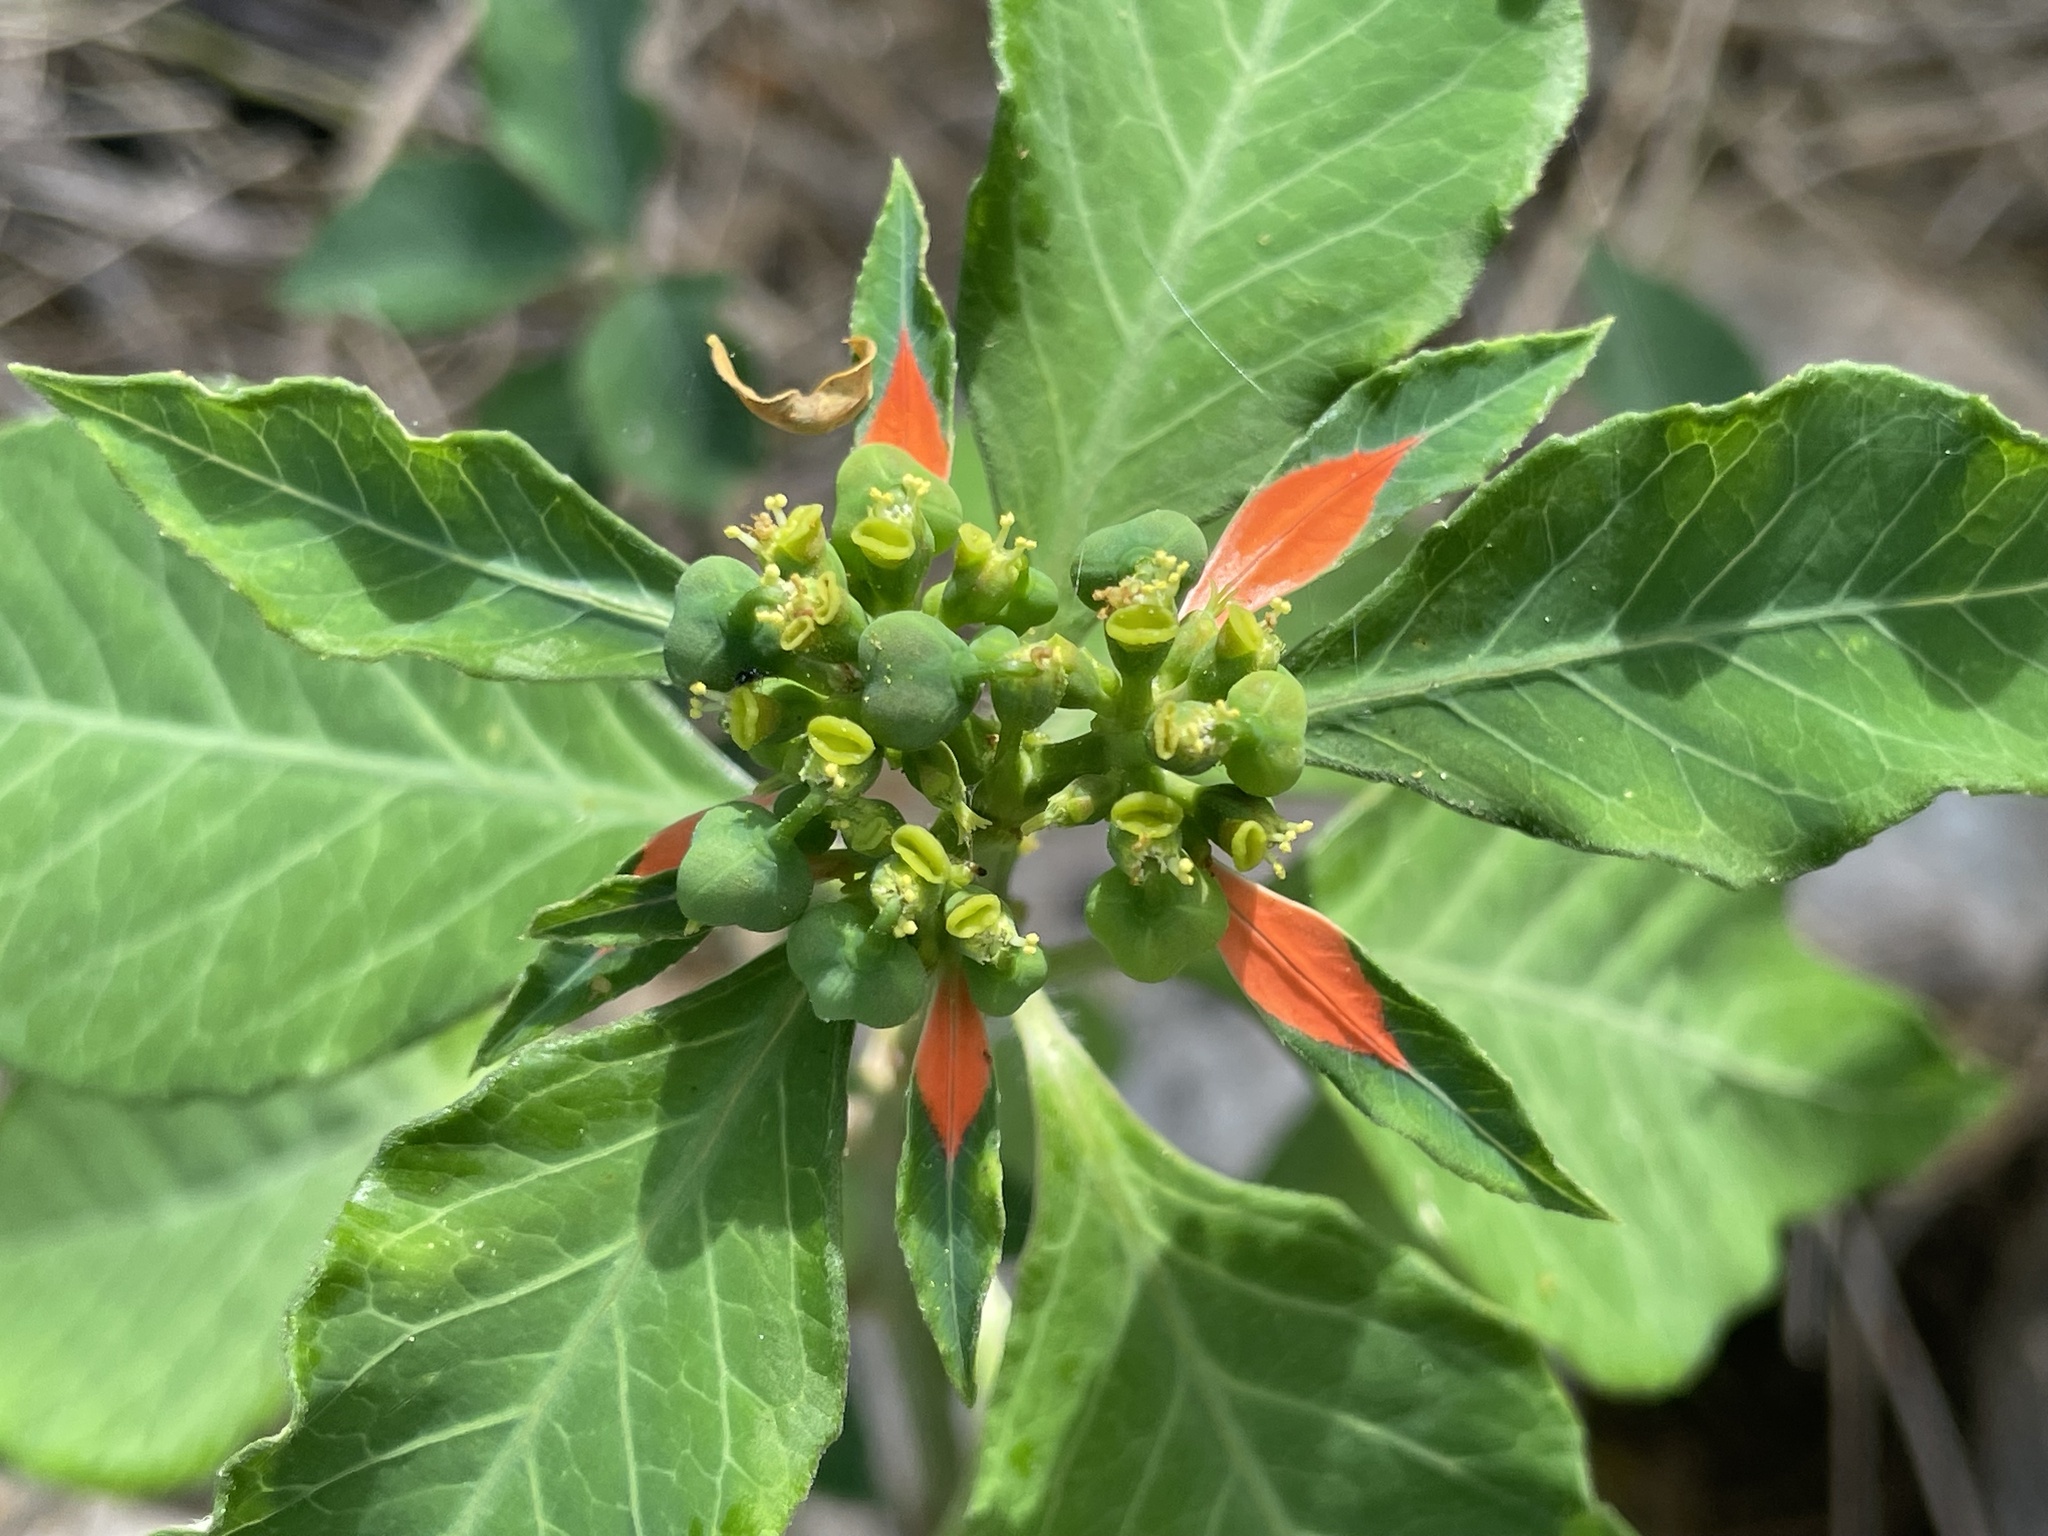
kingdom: Plantae
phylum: Tracheophyta
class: Magnoliopsida
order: Malpighiales
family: Euphorbiaceae
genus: Euphorbia
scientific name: Euphorbia heterophylla
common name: Mexican fireplant
